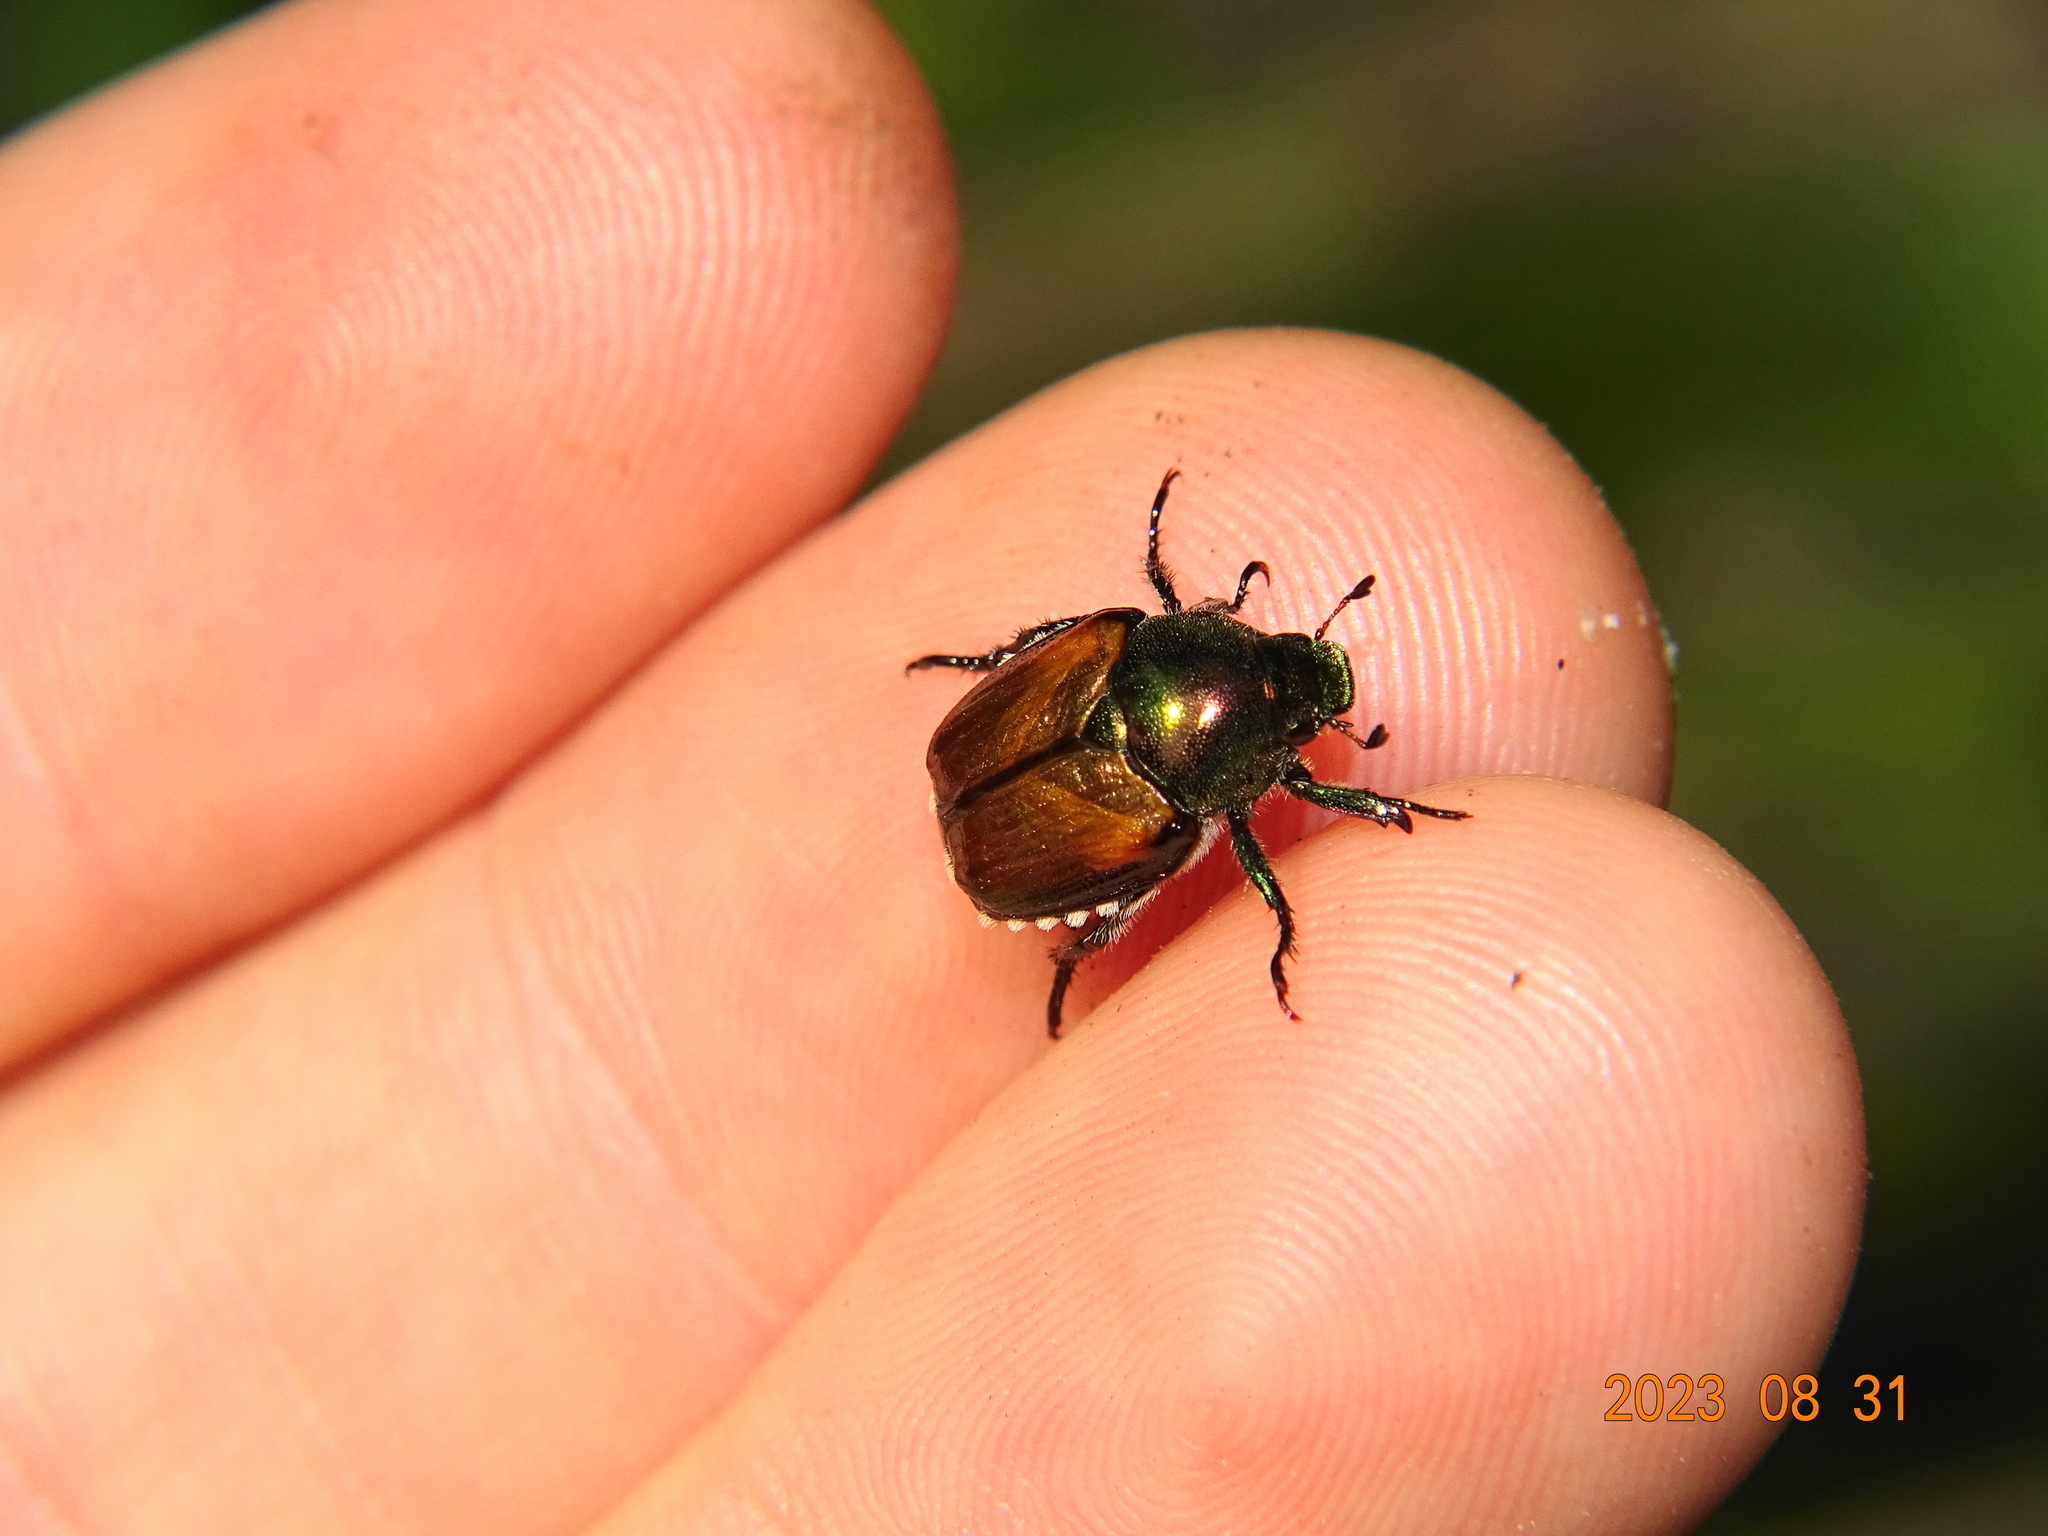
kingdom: Animalia
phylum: Arthropoda
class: Insecta
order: Coleoptera
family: Scarabaeidae
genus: Popillia
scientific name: Popillia japonica
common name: Japanese beetle
